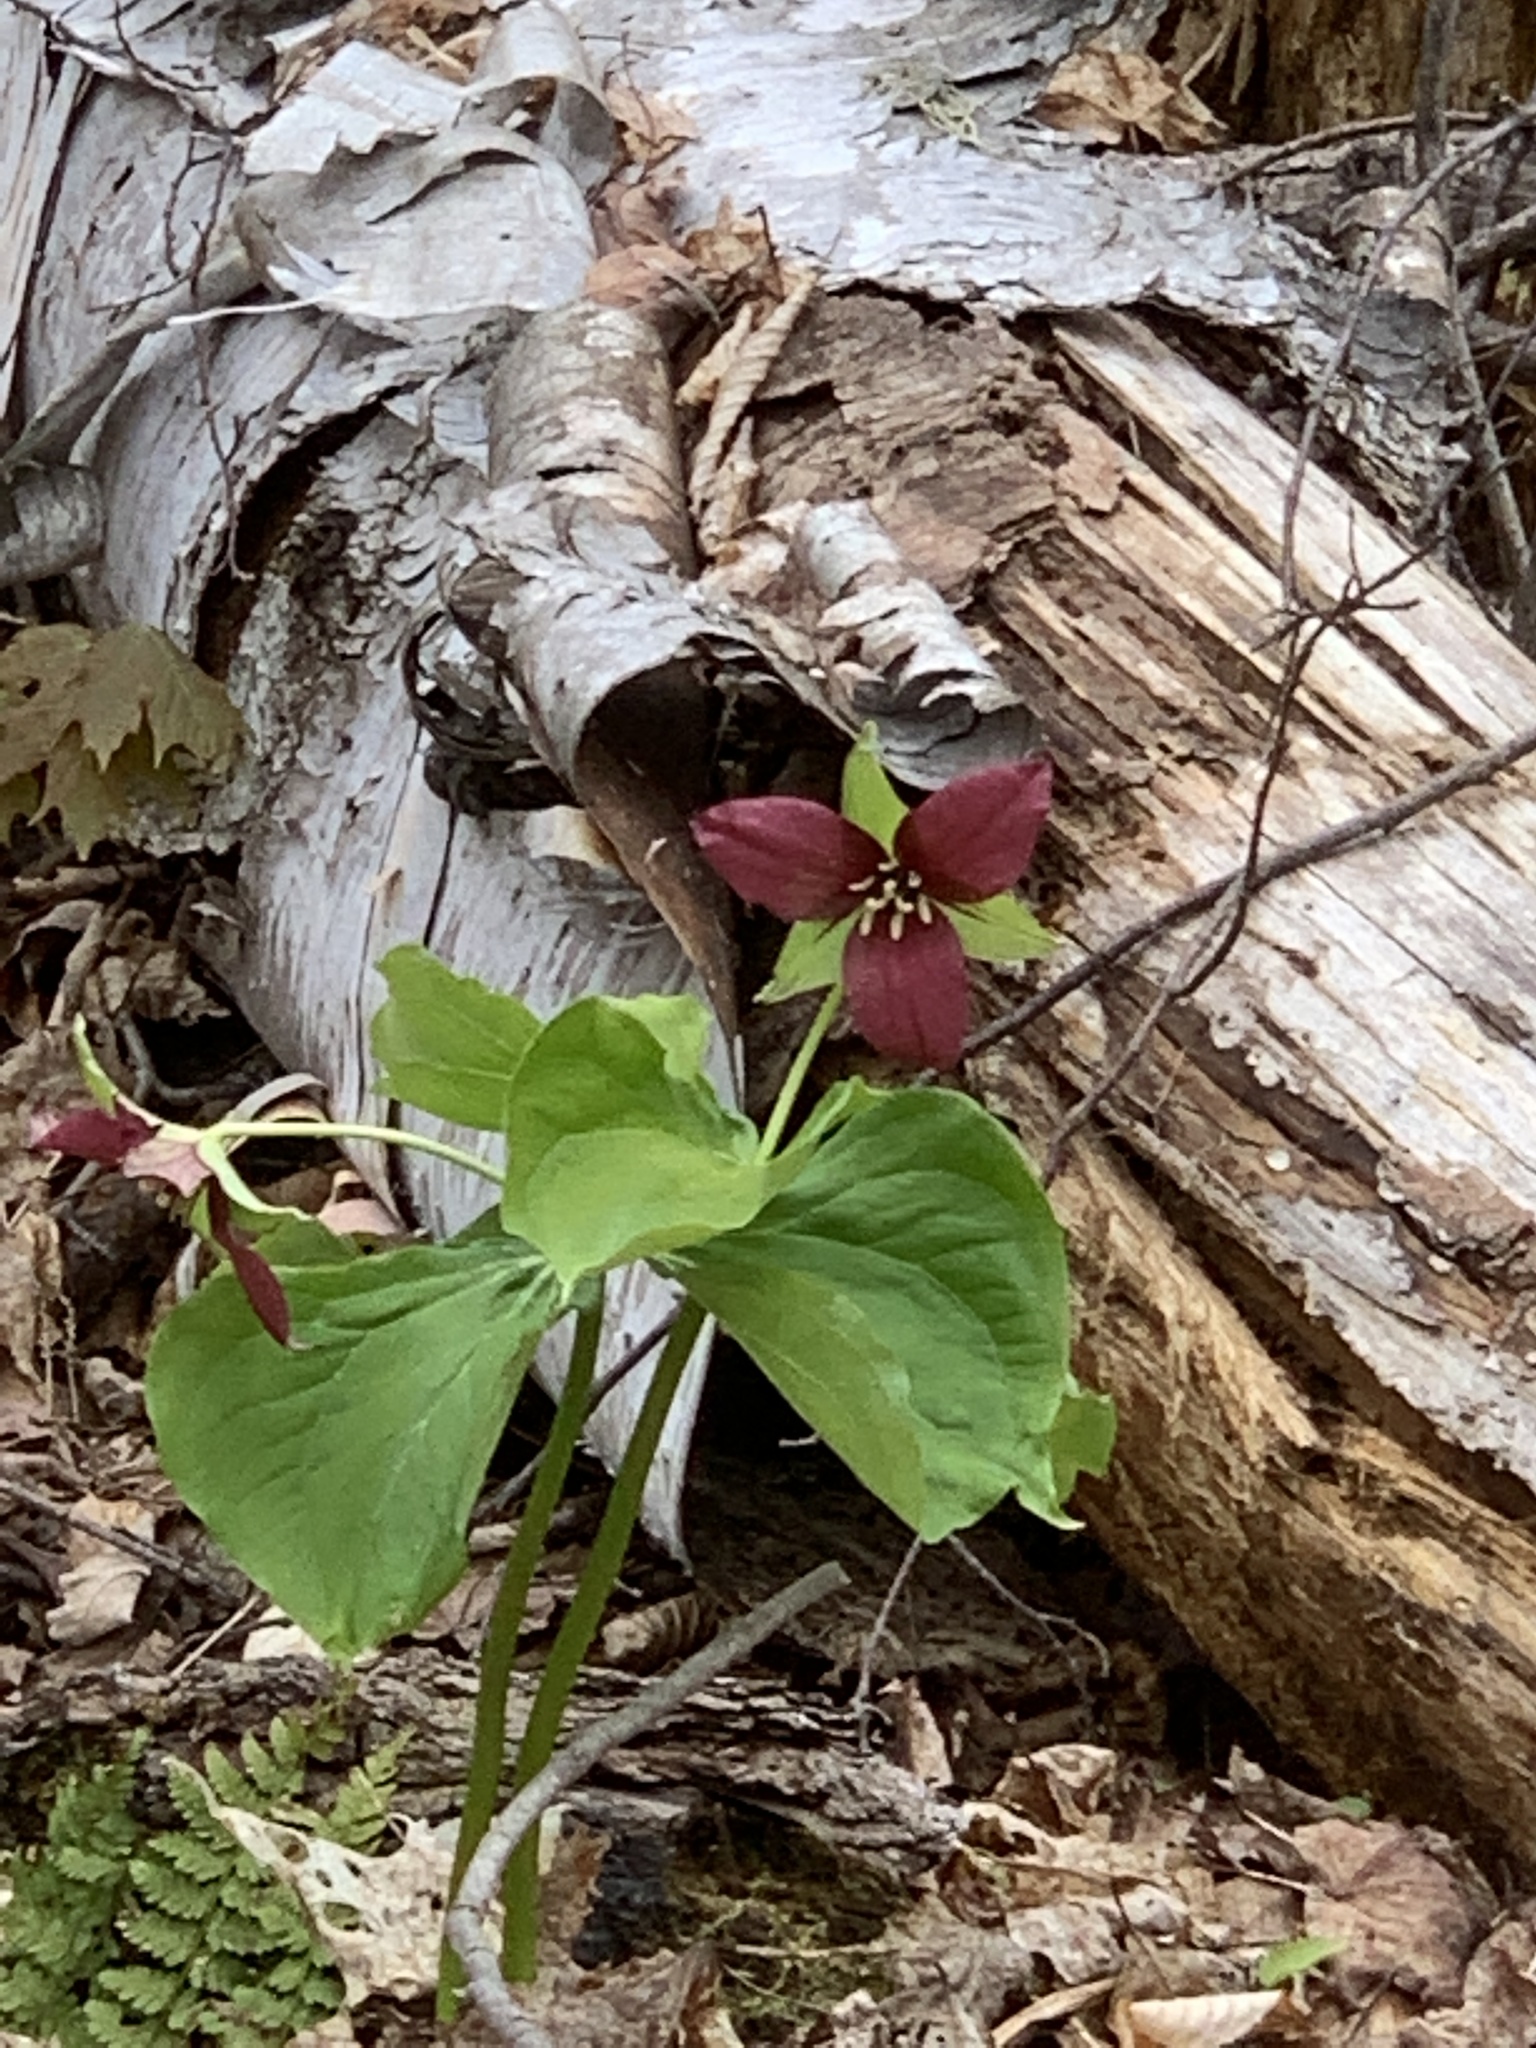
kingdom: Plantae
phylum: Tracheophyta
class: Liliopsida
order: Liliales
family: Melanthiaceae
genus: Trillium
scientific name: Trillium erectum
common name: Purple trillium
